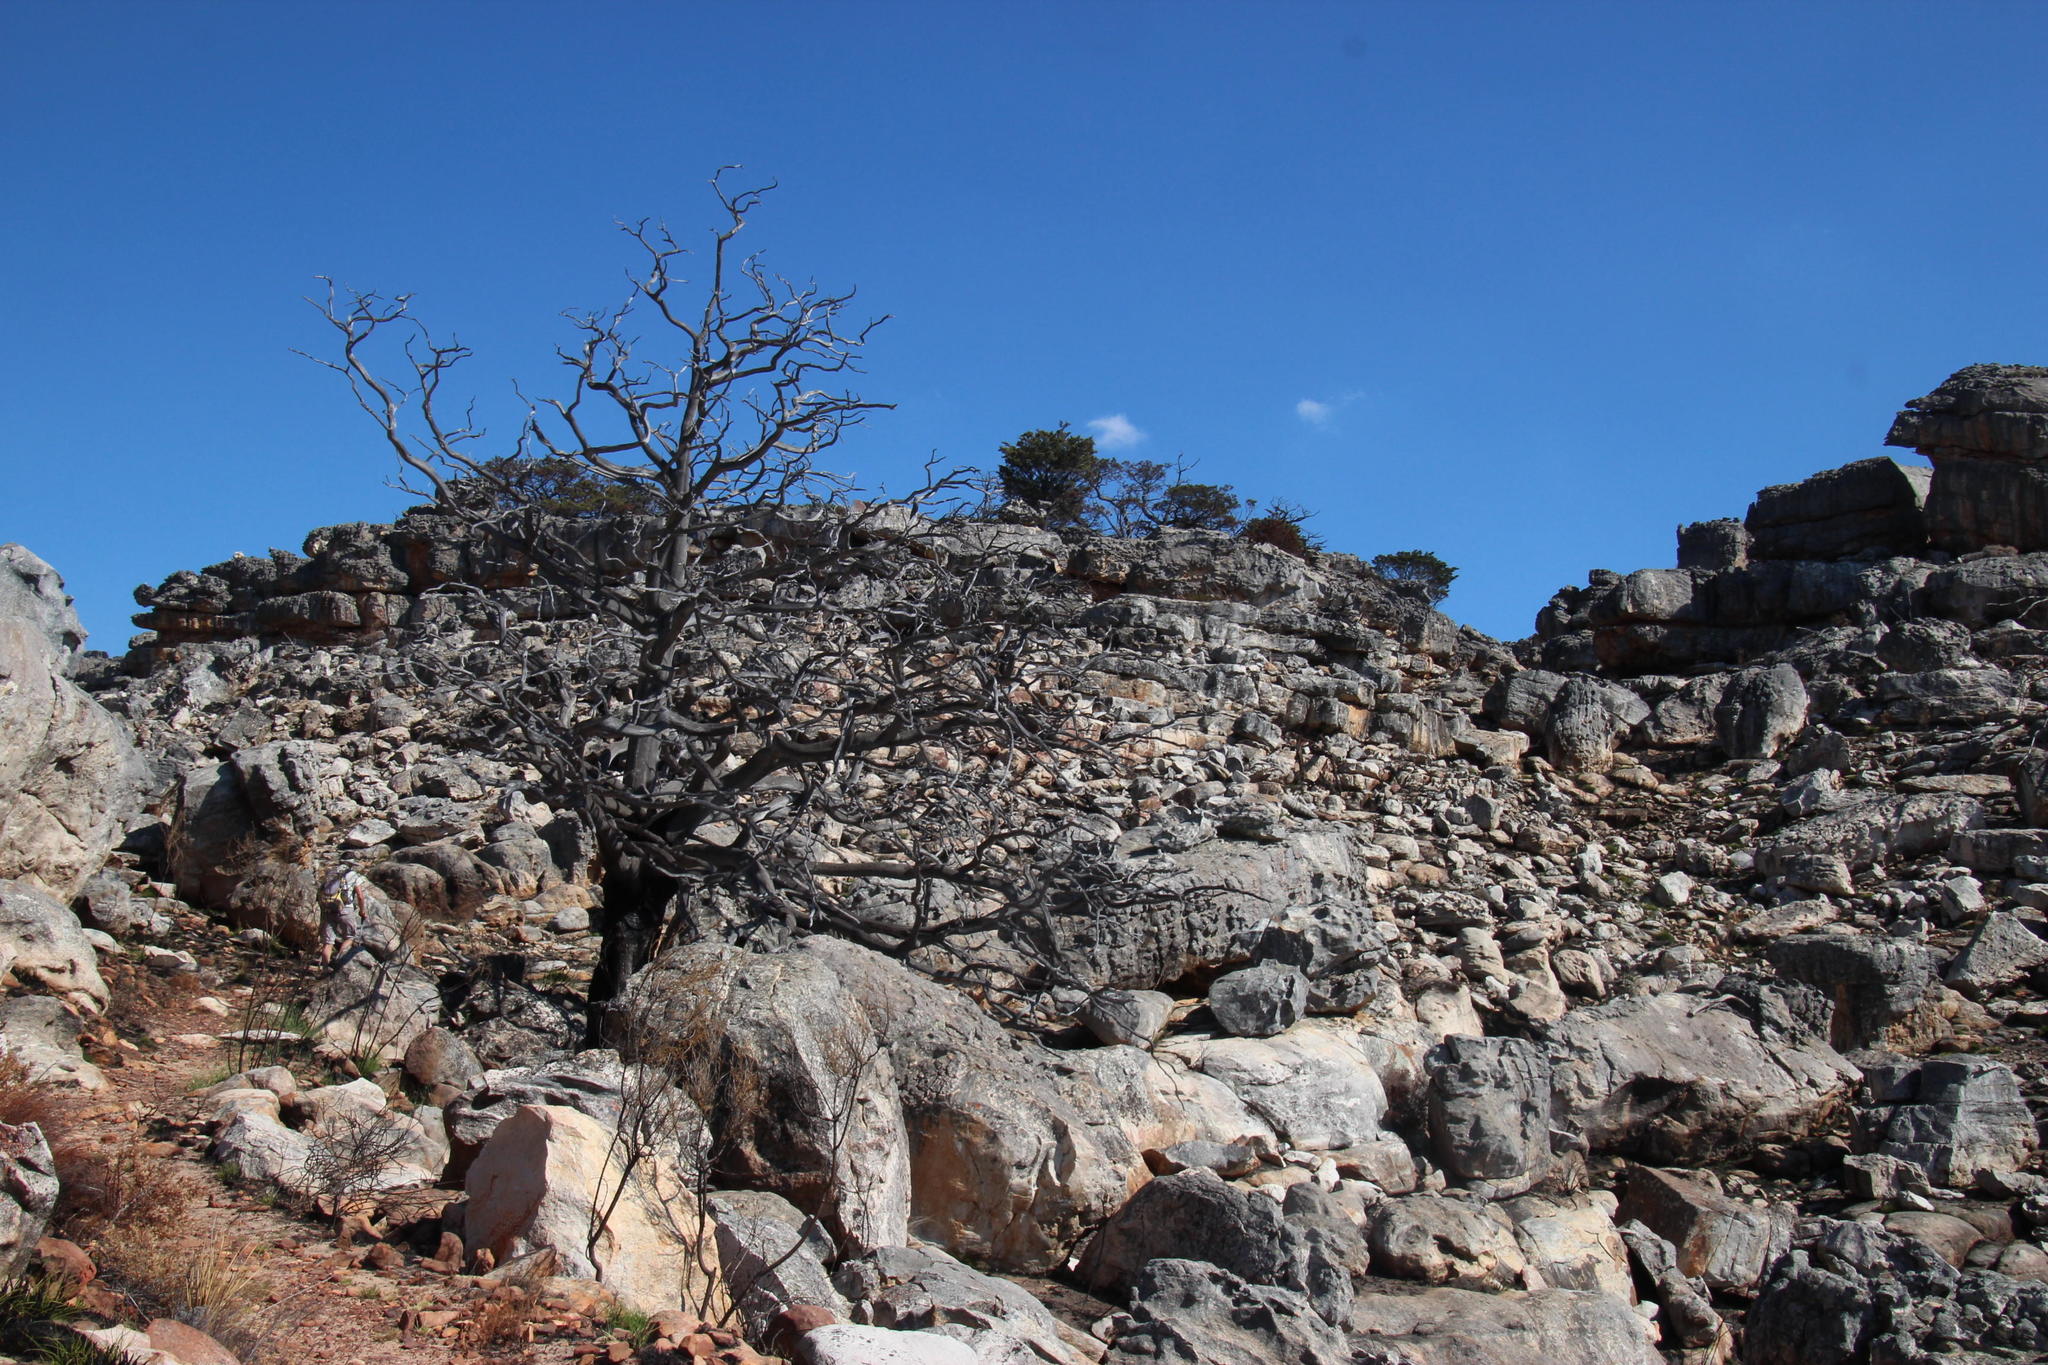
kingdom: Plantae
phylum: Tracheophyta
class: Pinopsida
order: Pinales
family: Cupressaceae
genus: Widdringtonia
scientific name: Widdringtonia nodiflora
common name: Cape cypress
